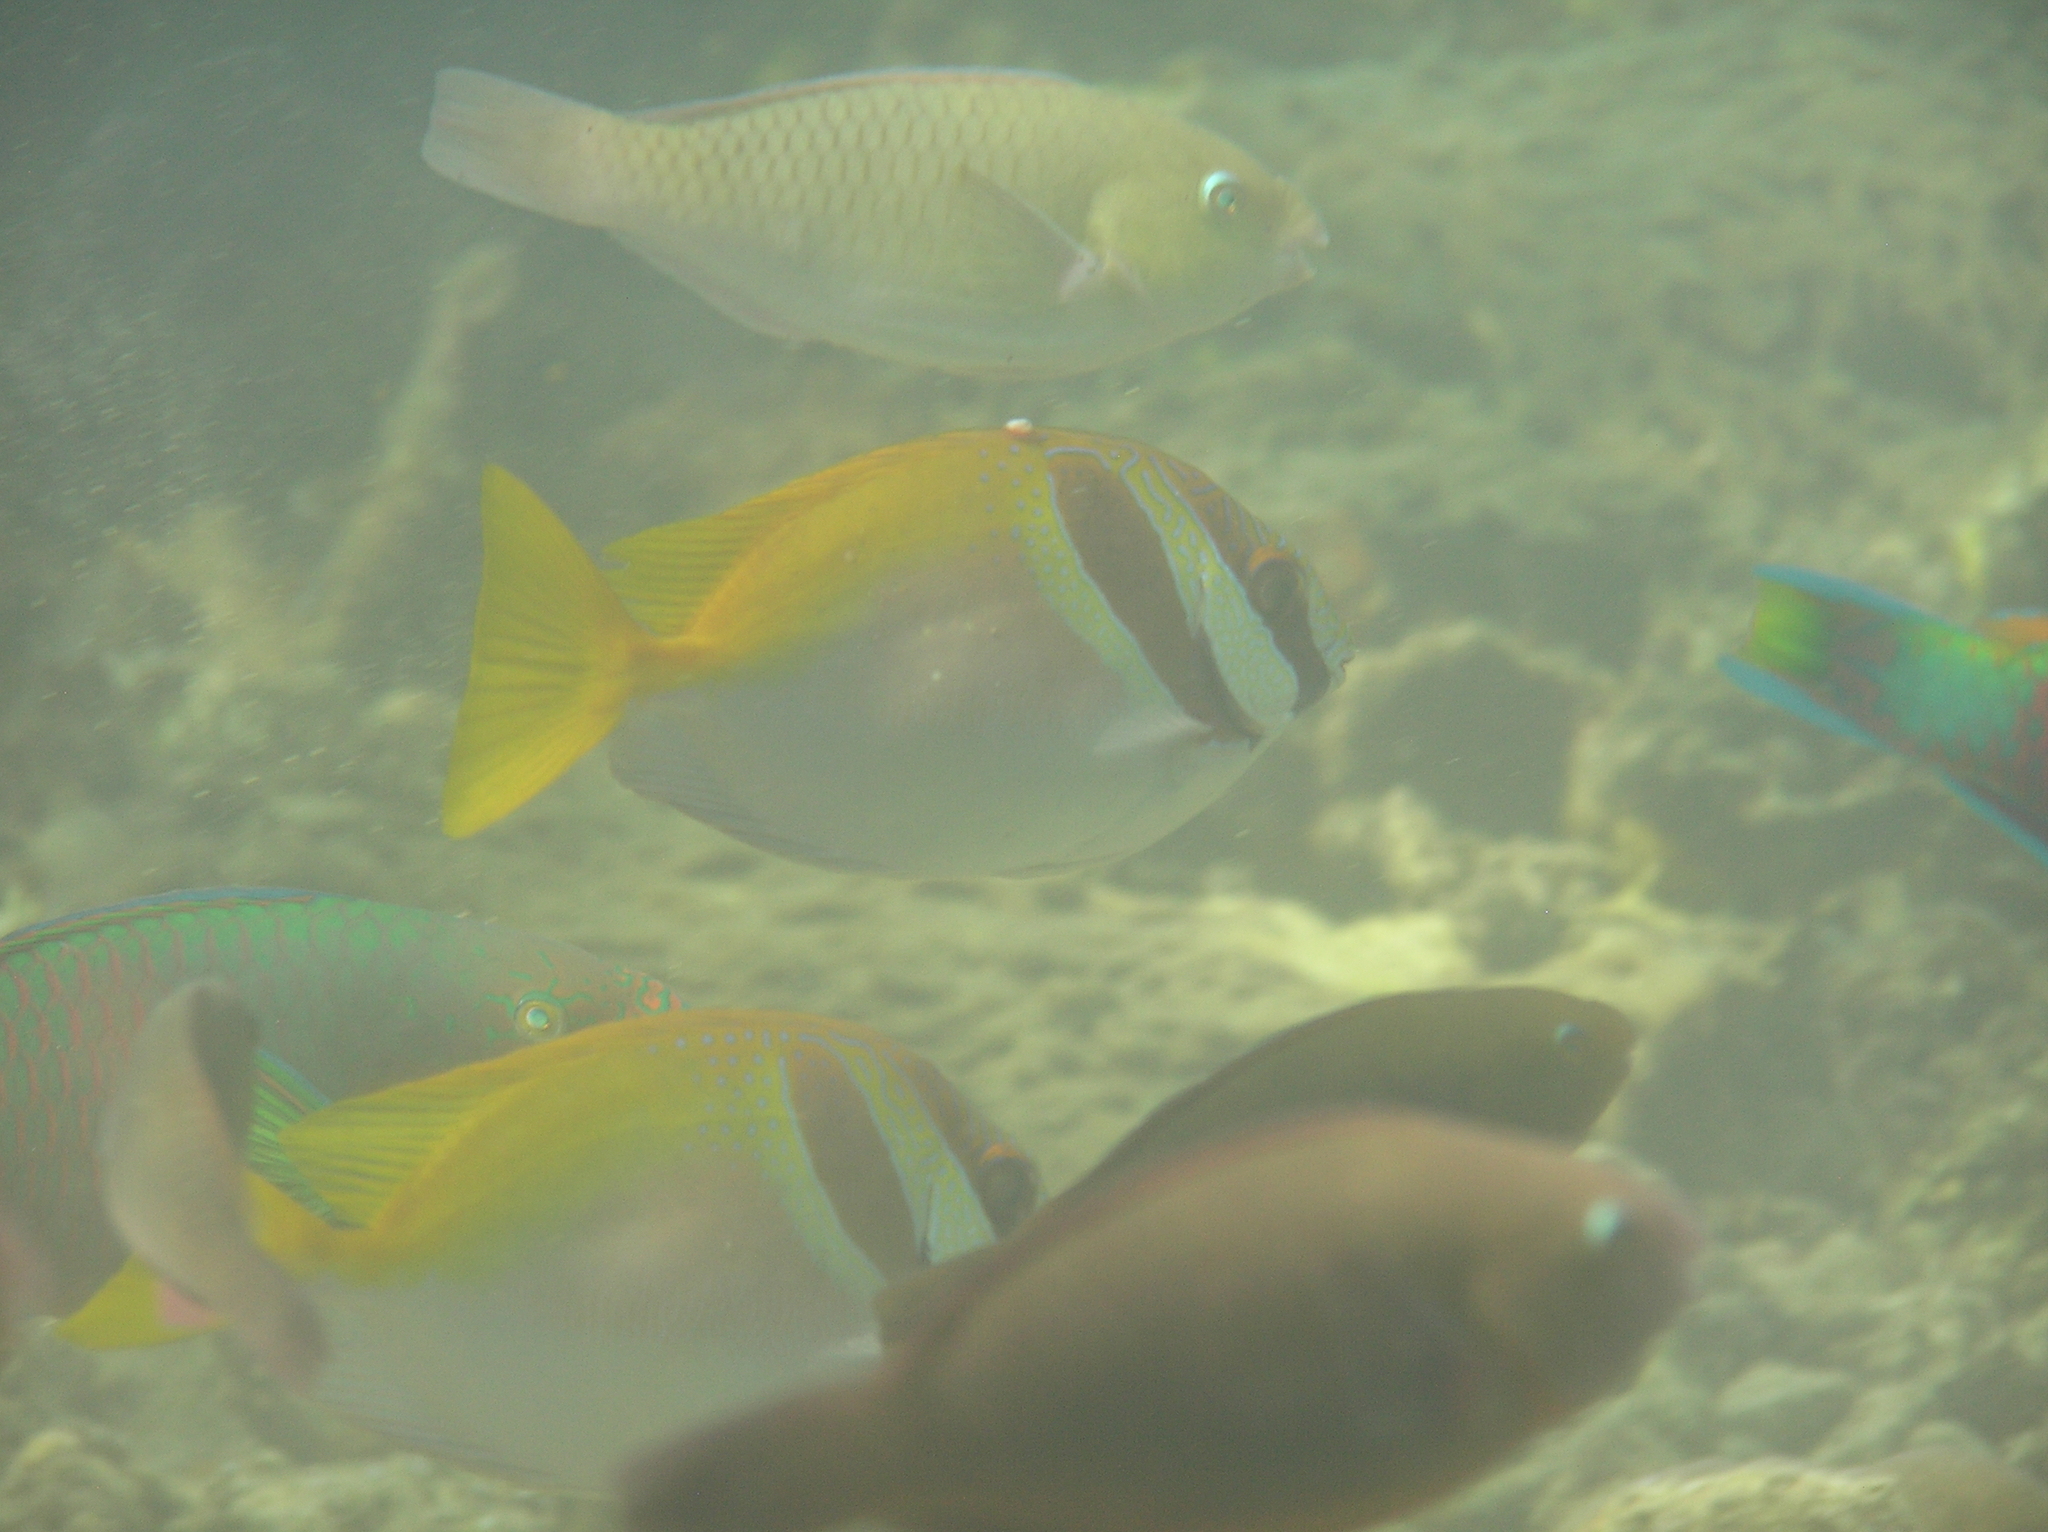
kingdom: Animalia
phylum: Chordata
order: Perciformes
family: Siganidae
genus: Siganus
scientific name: Siganus virgatus
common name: Barhead spinefoot
